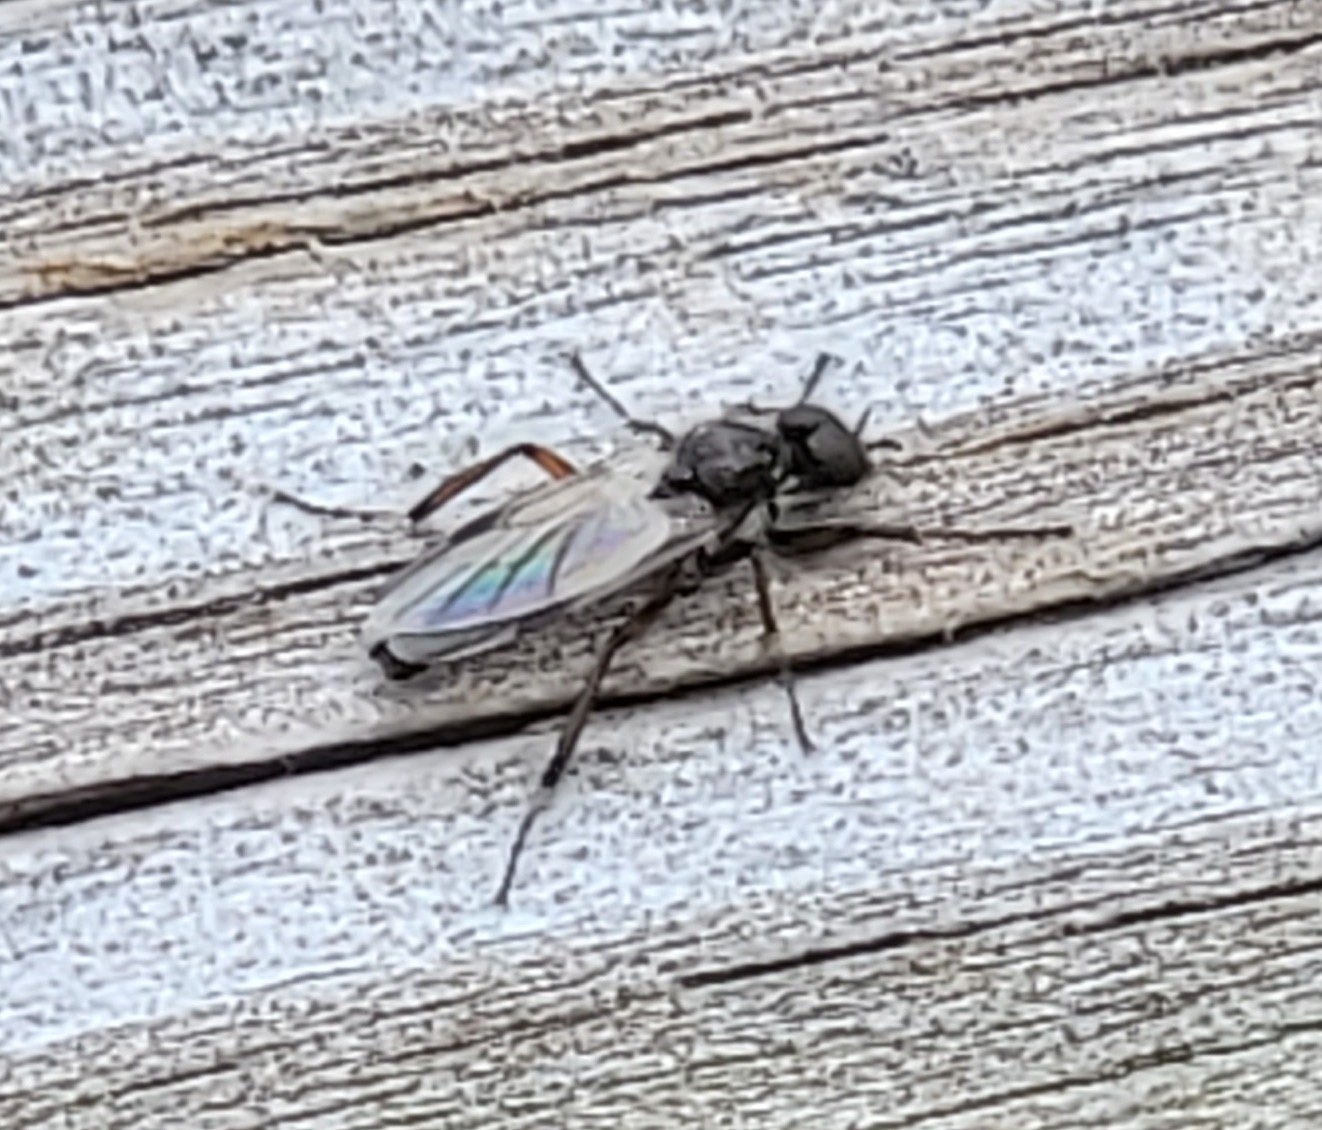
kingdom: Animalia
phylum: Arthropoda
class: Insecta
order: Diptera
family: Bibionidae
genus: Bibio
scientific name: Bibio articulatus
